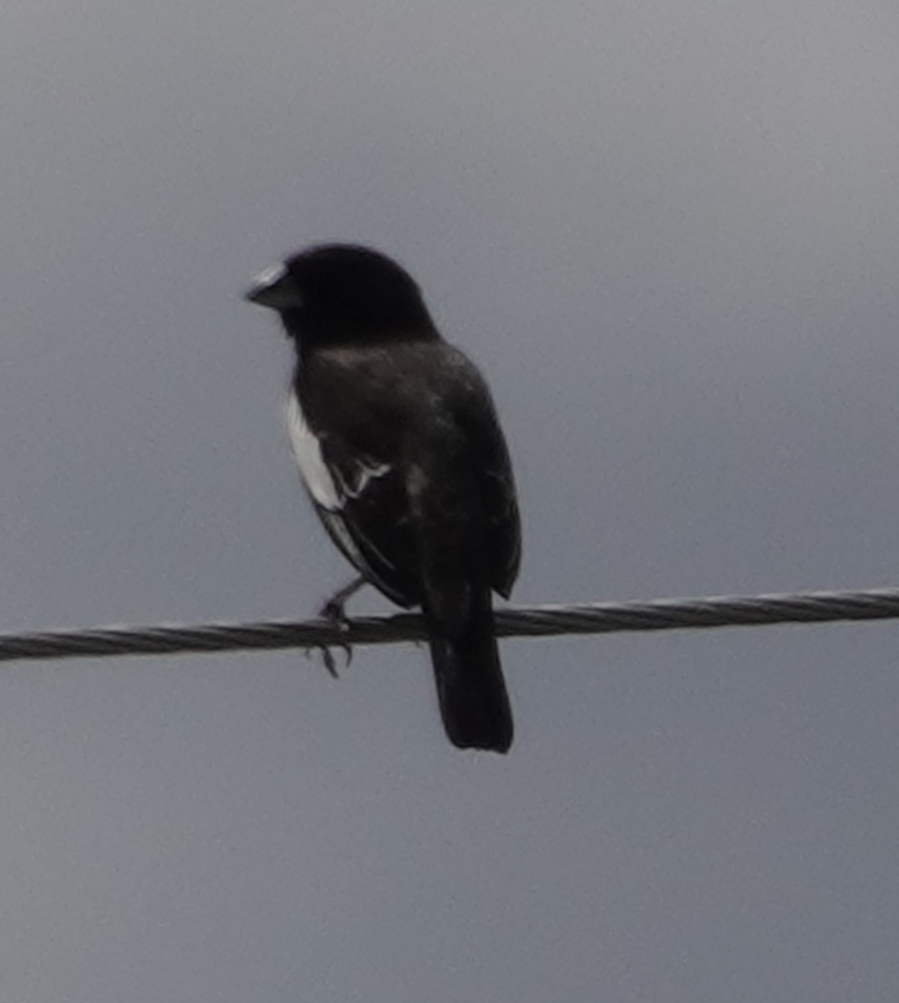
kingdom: Animalia
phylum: Chordata
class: Aves
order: Passeriformes
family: Passerellidae
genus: Calamospiza
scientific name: Calamospiza melanocorys
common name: Lark bunting
